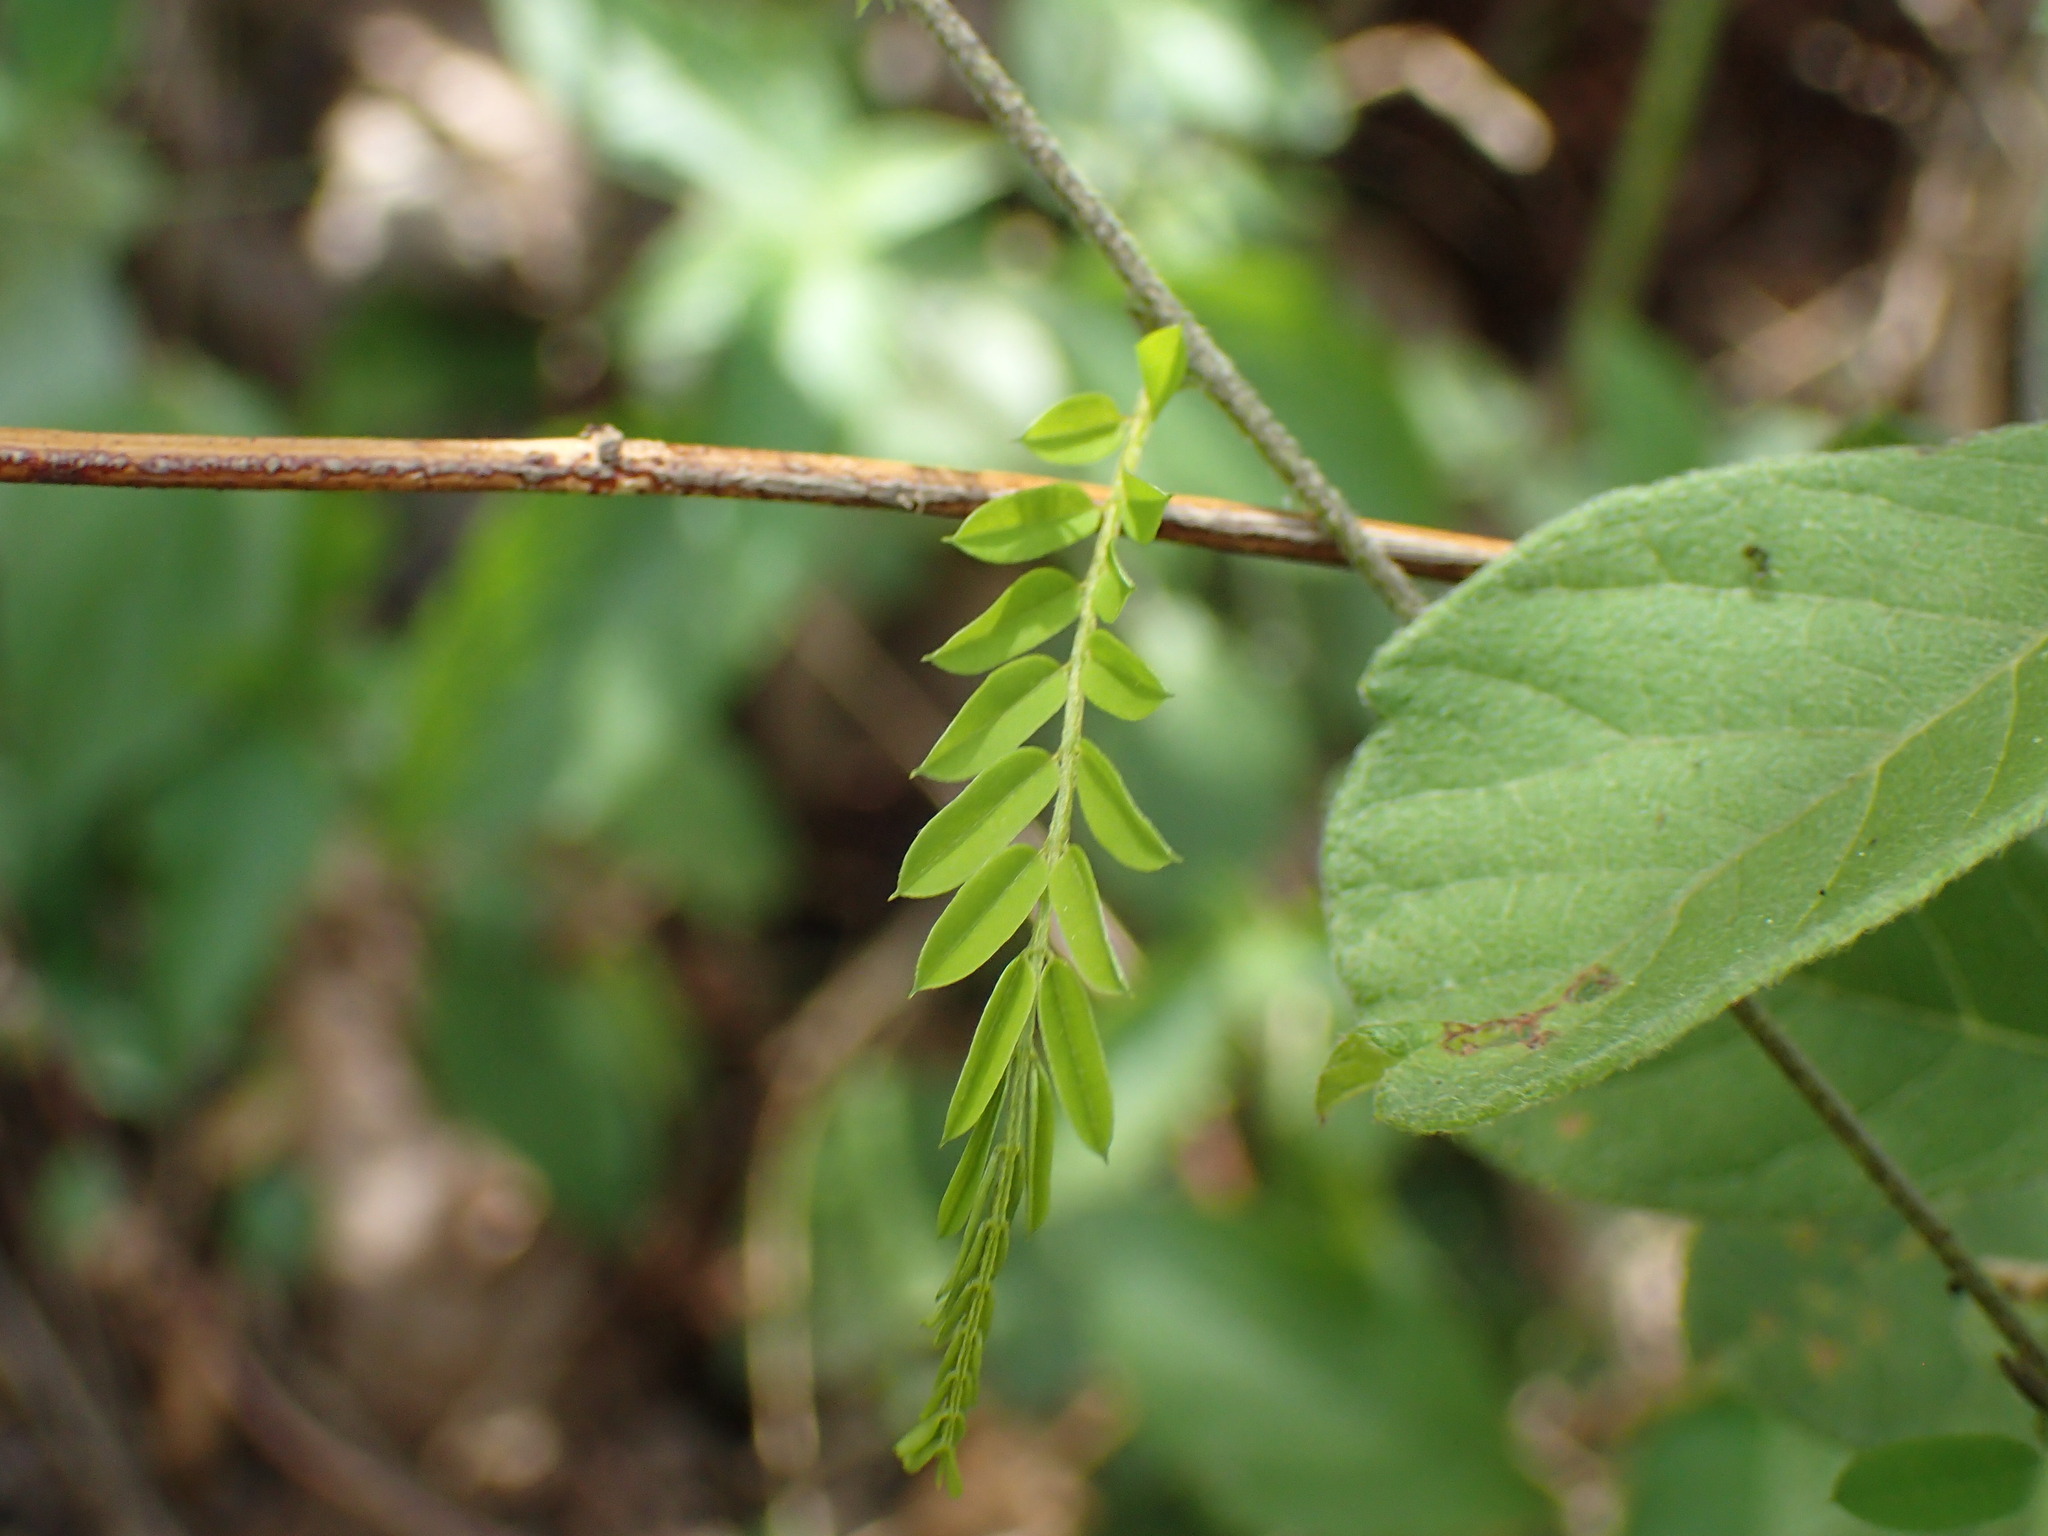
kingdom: Plantae
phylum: Tracheophyta
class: Magnoliopsida
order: Fabales
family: Fabaceae
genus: Abrus
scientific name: Abrus precatorius
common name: Rosarypea
